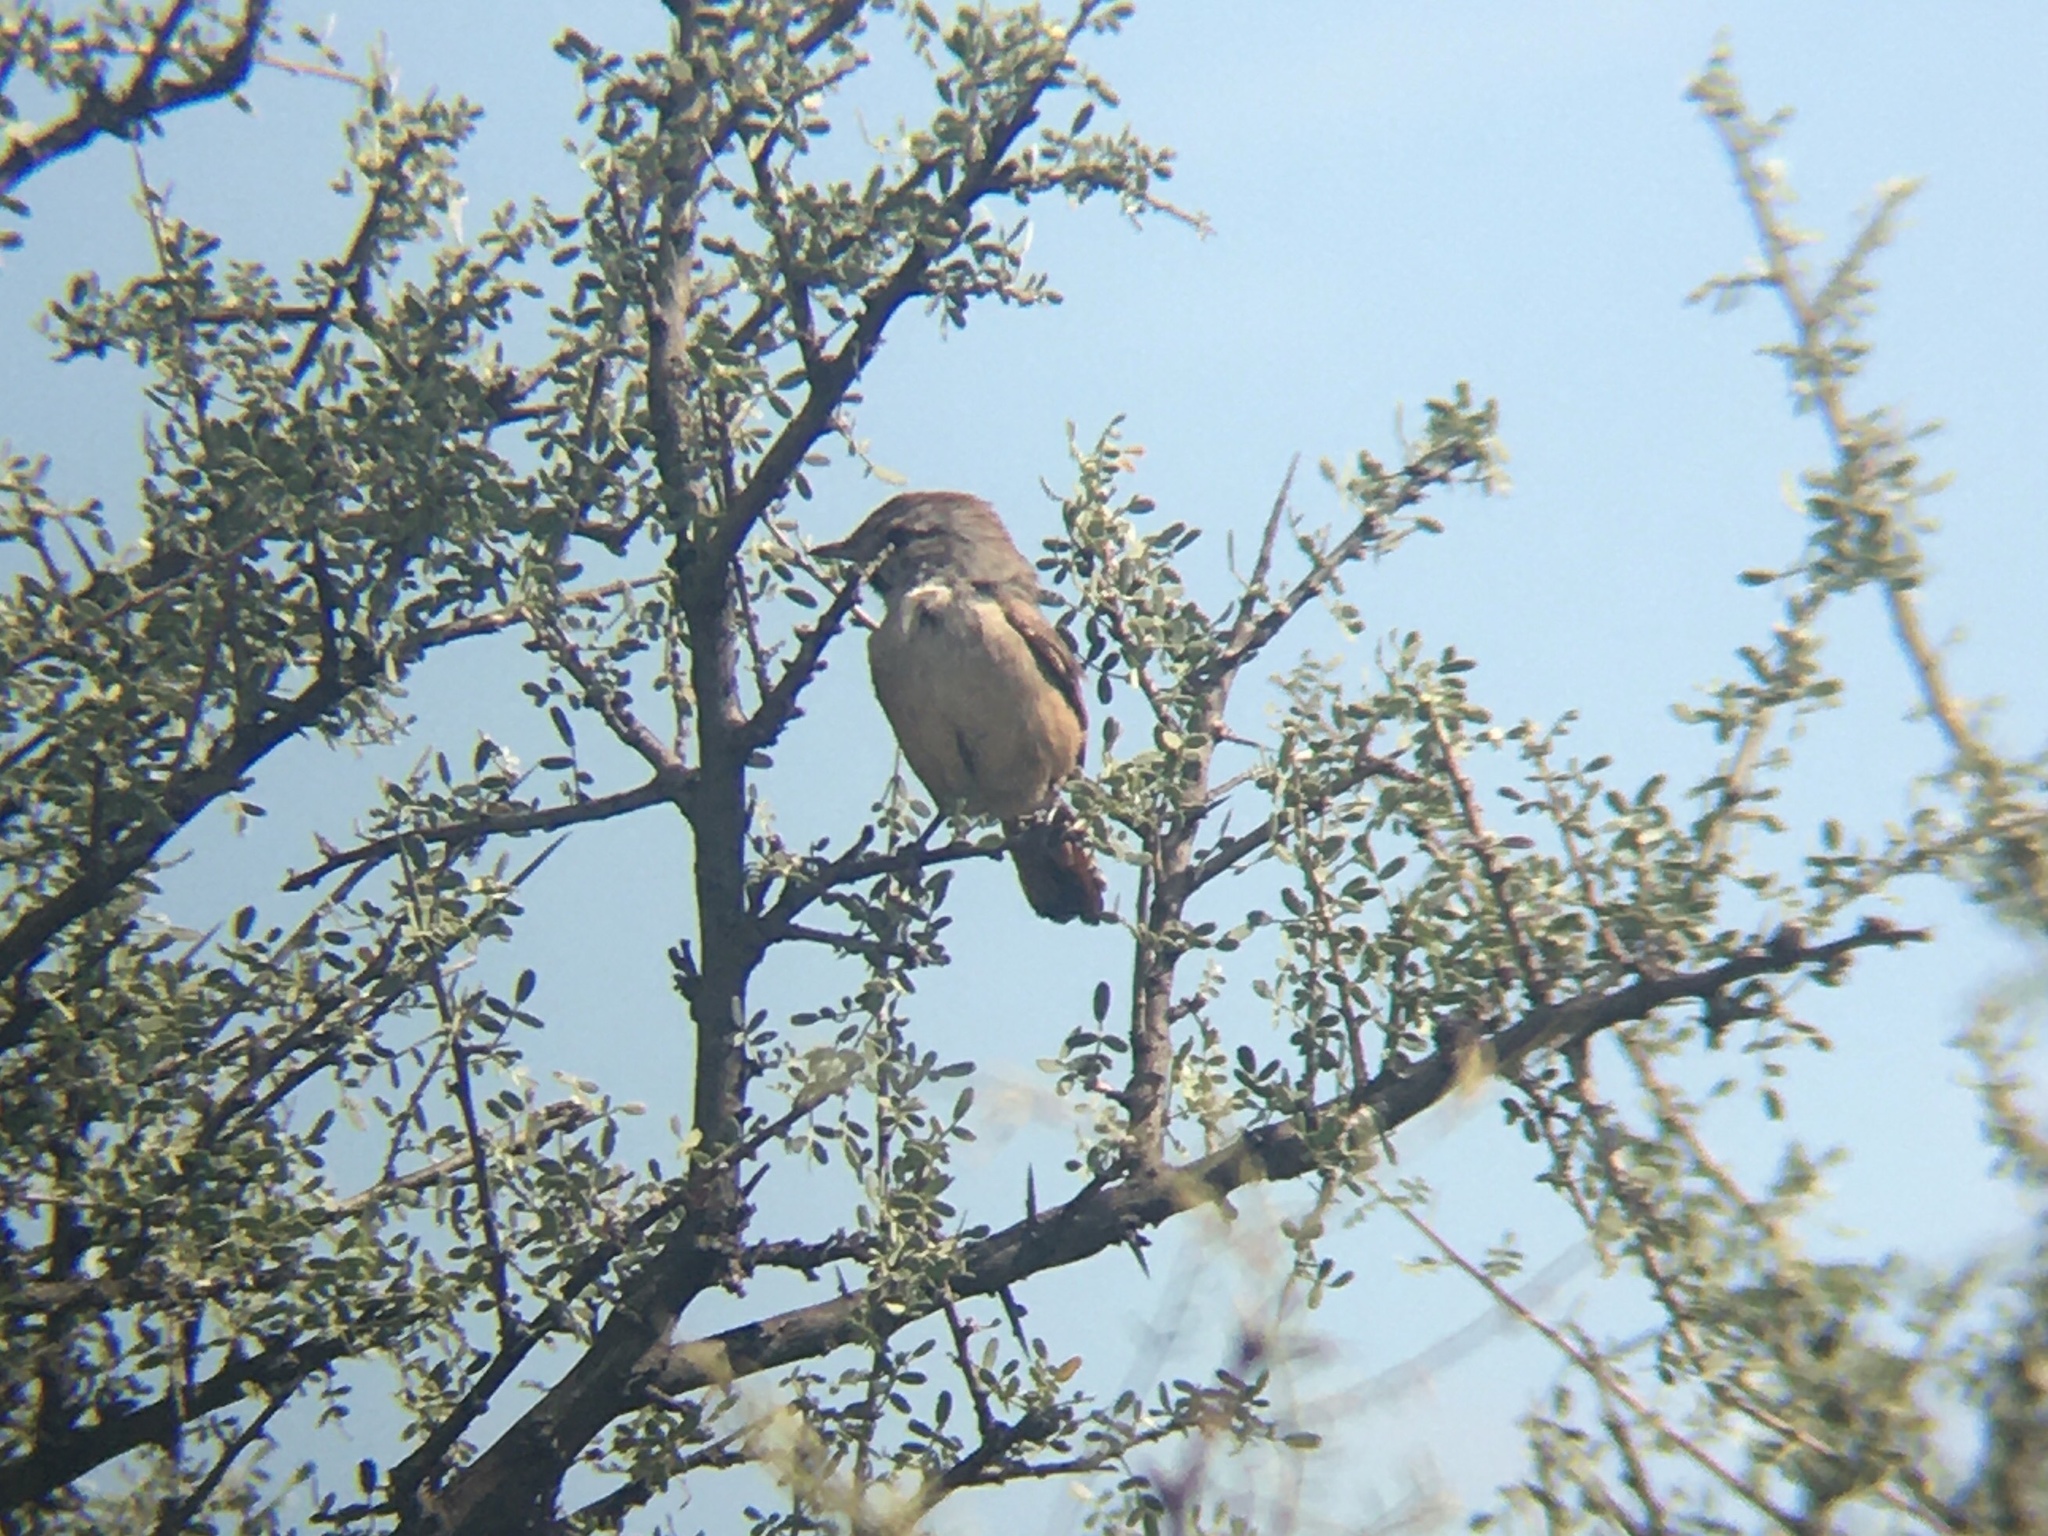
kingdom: Animalia
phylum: Chordata
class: Aves
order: Passeriformes
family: Furnariidae
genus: Asthenes
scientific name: Asthenes baeri
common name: Short-billed canastero
